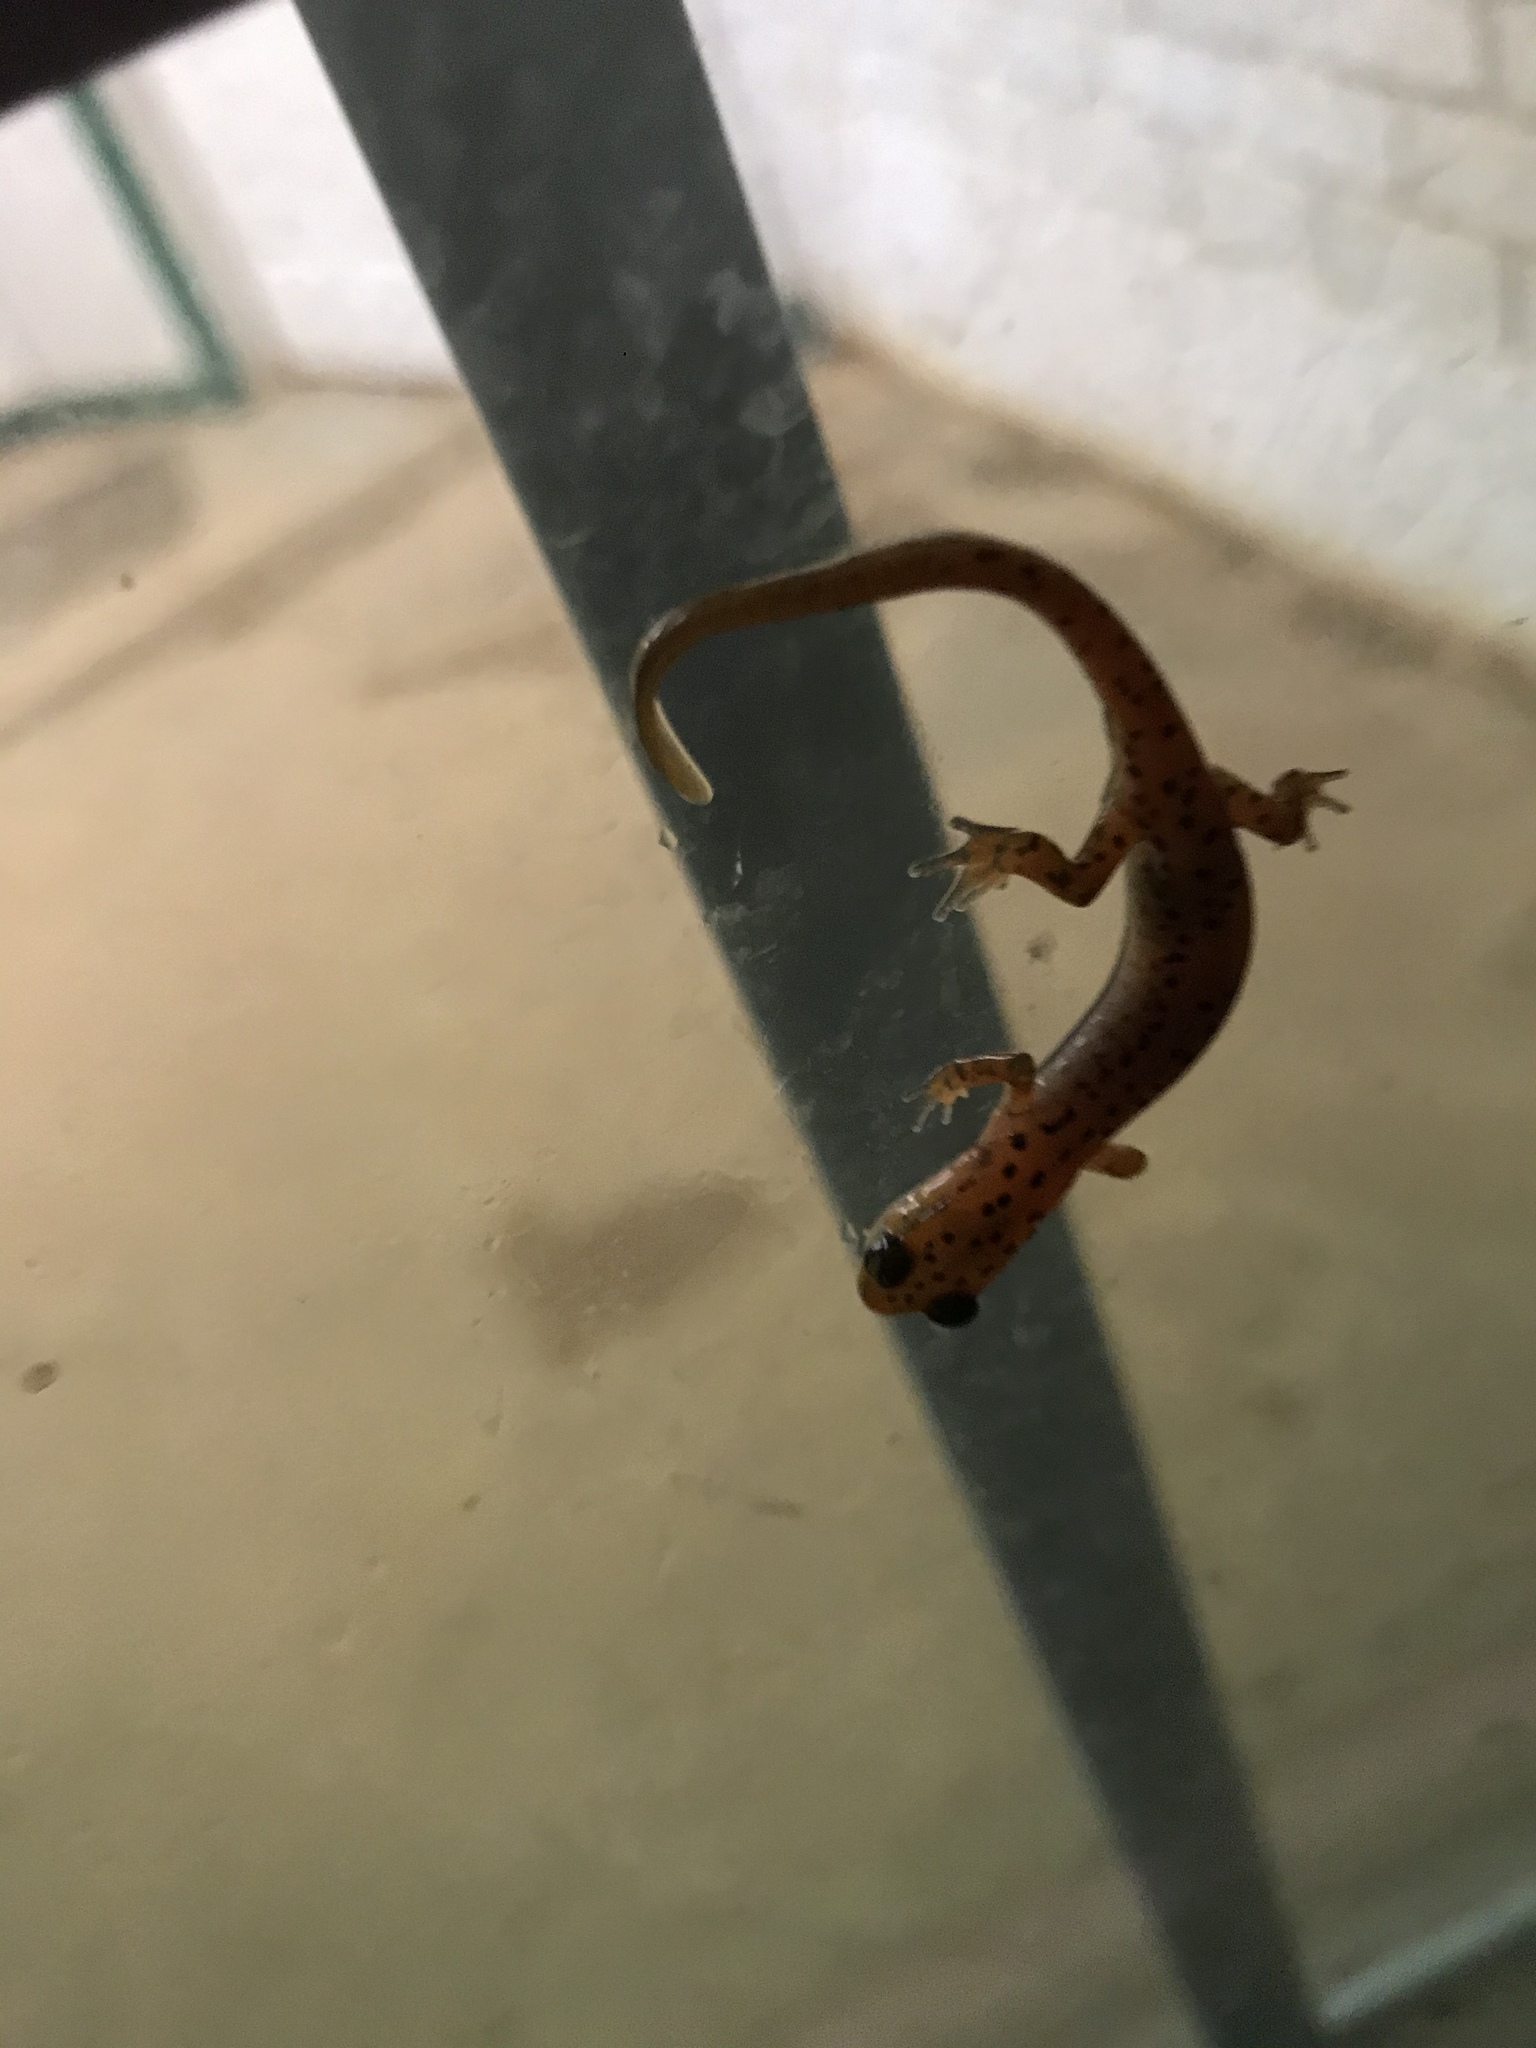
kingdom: Animalia
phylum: Chordata
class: Amphibia
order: Caudata
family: Plethodontidae
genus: Eurycea
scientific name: Eurycea lucifuga
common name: Cave salamander
